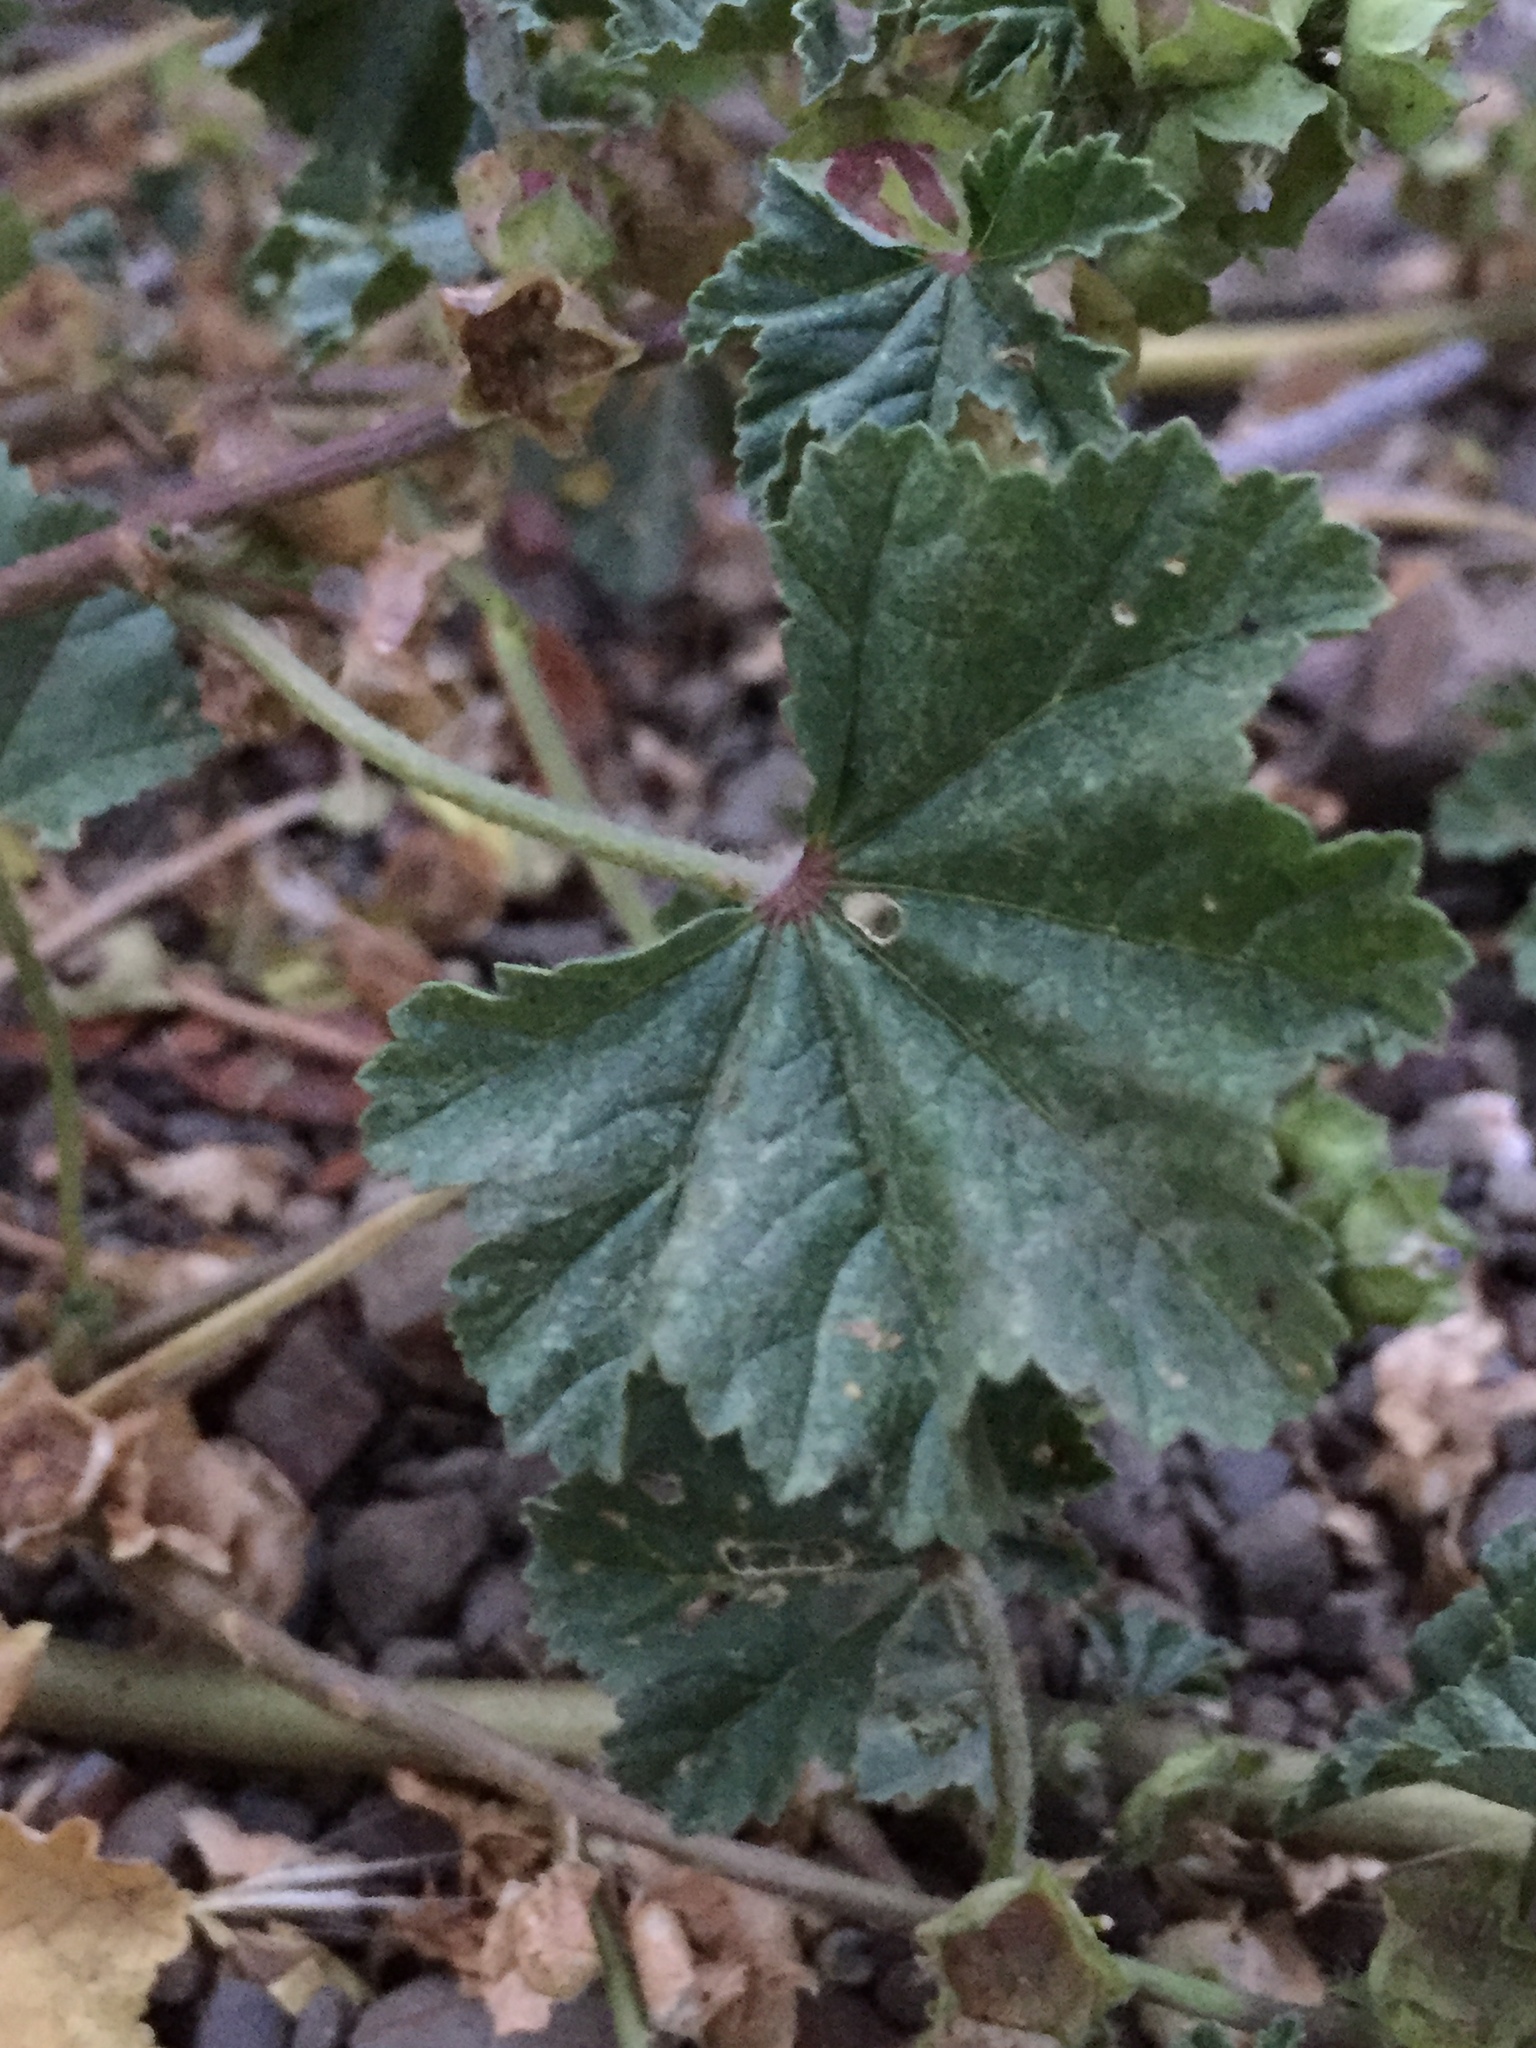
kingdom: Plantae
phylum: Tracheophyta
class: Magnoliopsida
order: Malvales
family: Malvaceae
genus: Malva
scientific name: Malva parviflora
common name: Least mallow
